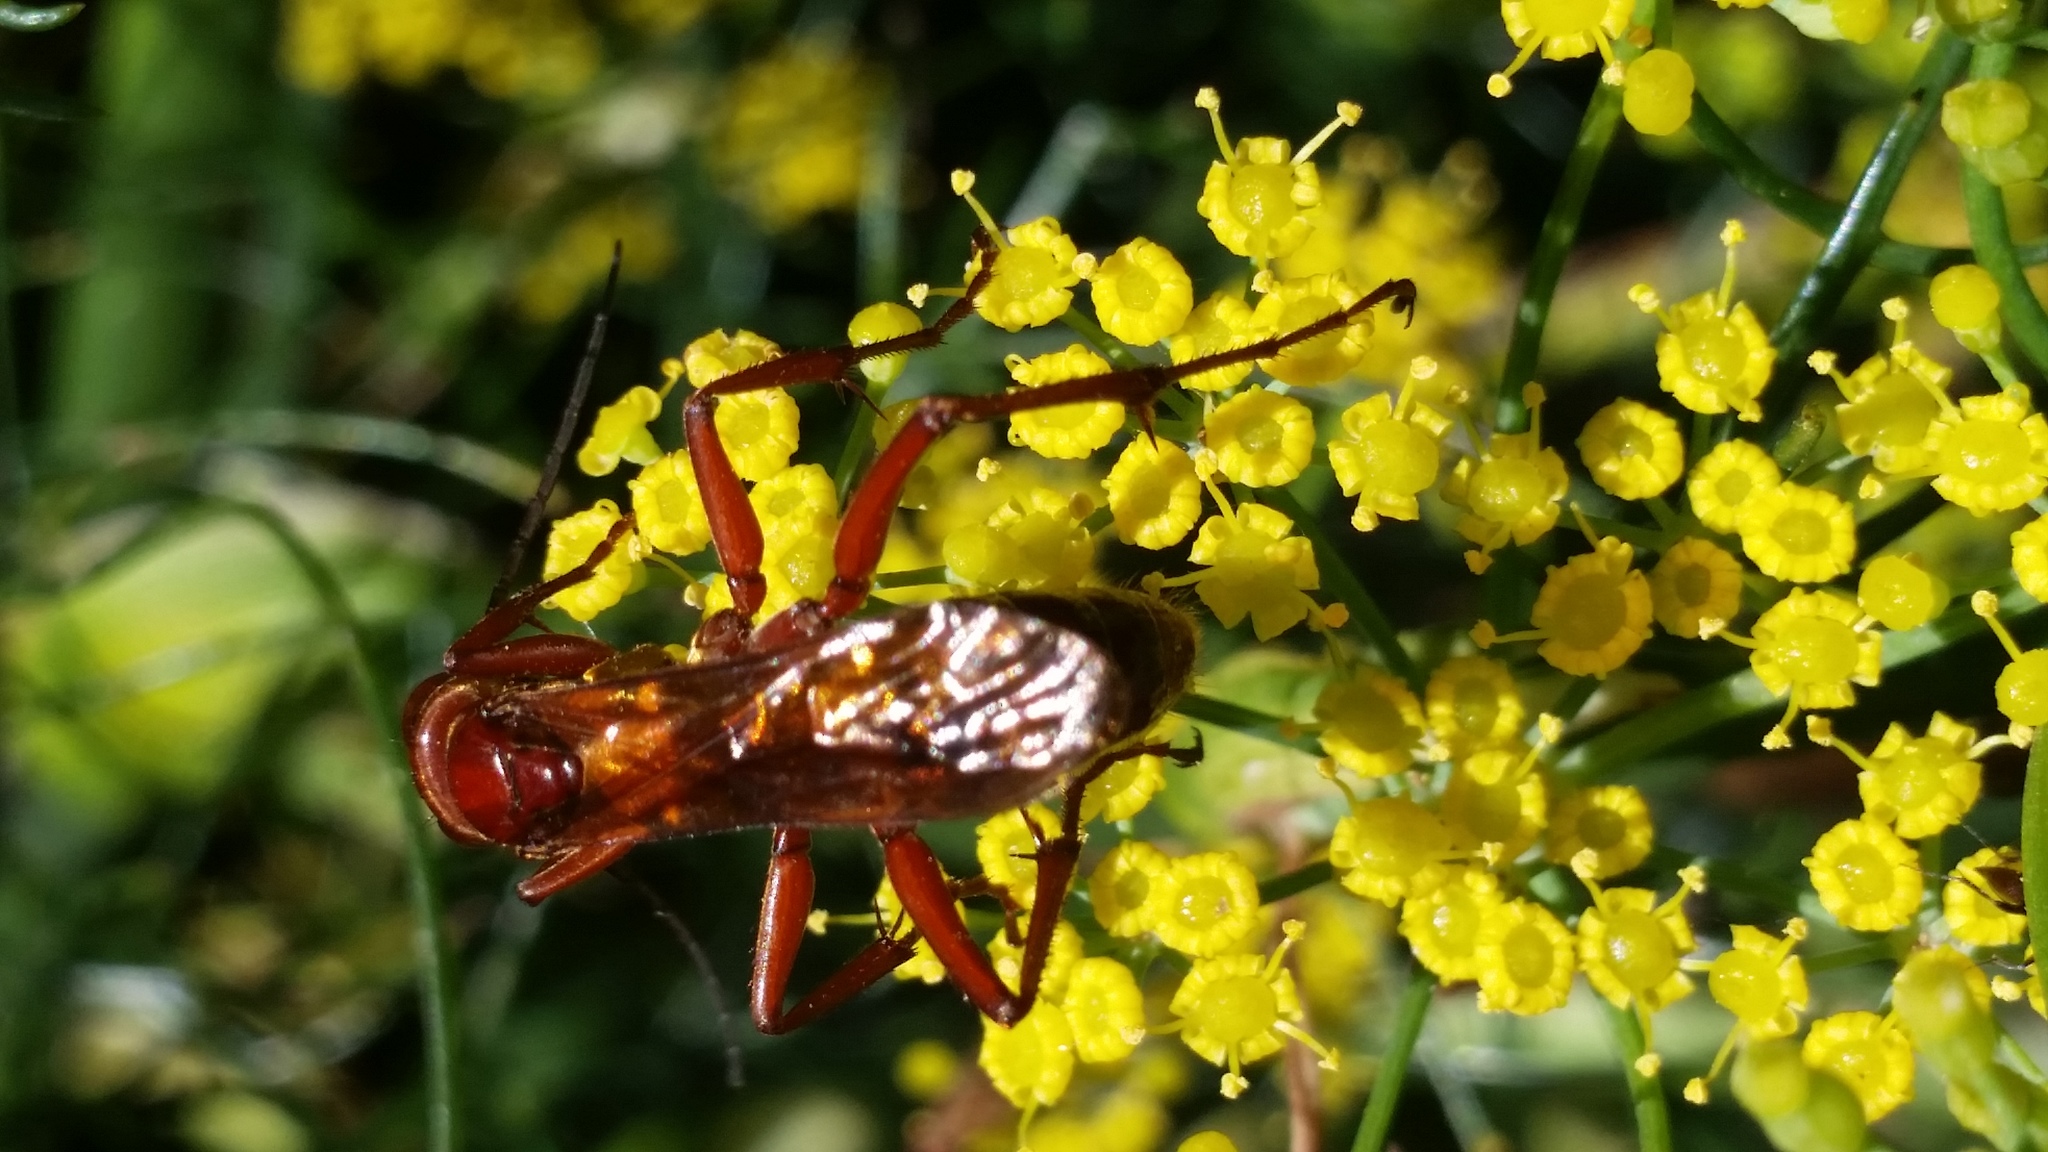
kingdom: Animalia
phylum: Arthropoda
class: Insecta
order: Hymenoptera
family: Pompilidae
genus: Sphictostethus
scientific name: Sphictostethus nitidus
